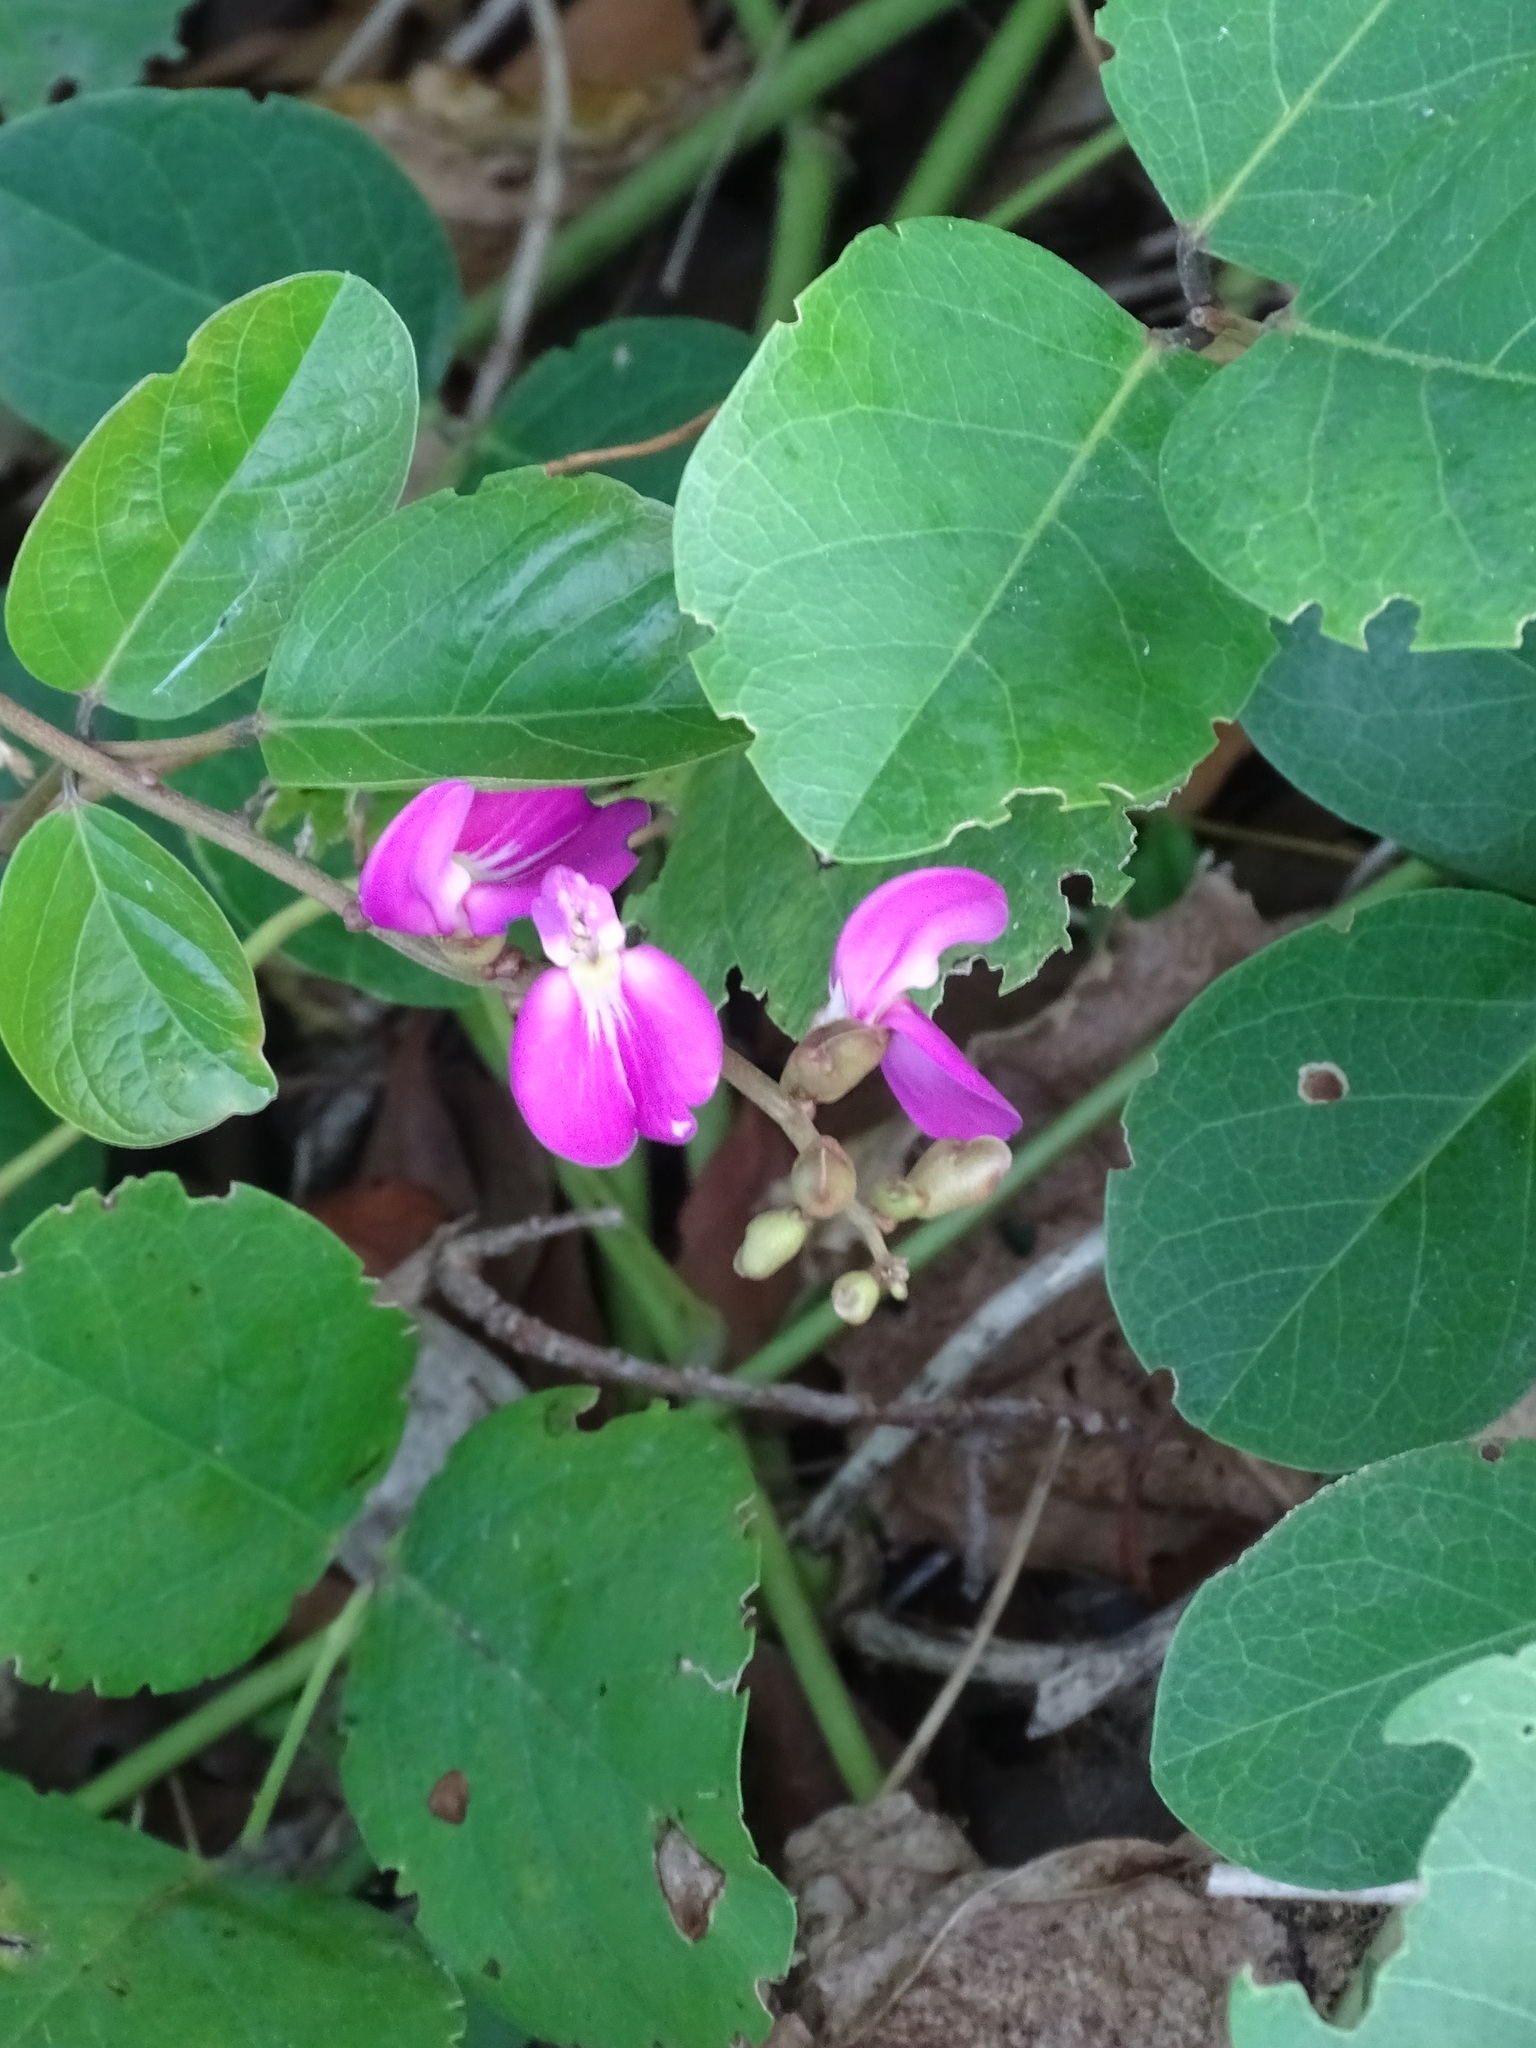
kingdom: Plantae
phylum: Tracheophyta
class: Magnoliopsida
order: Fabales
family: Fabaceae
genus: Canavalia
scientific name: Canavalia rosea
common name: Beach-bean
